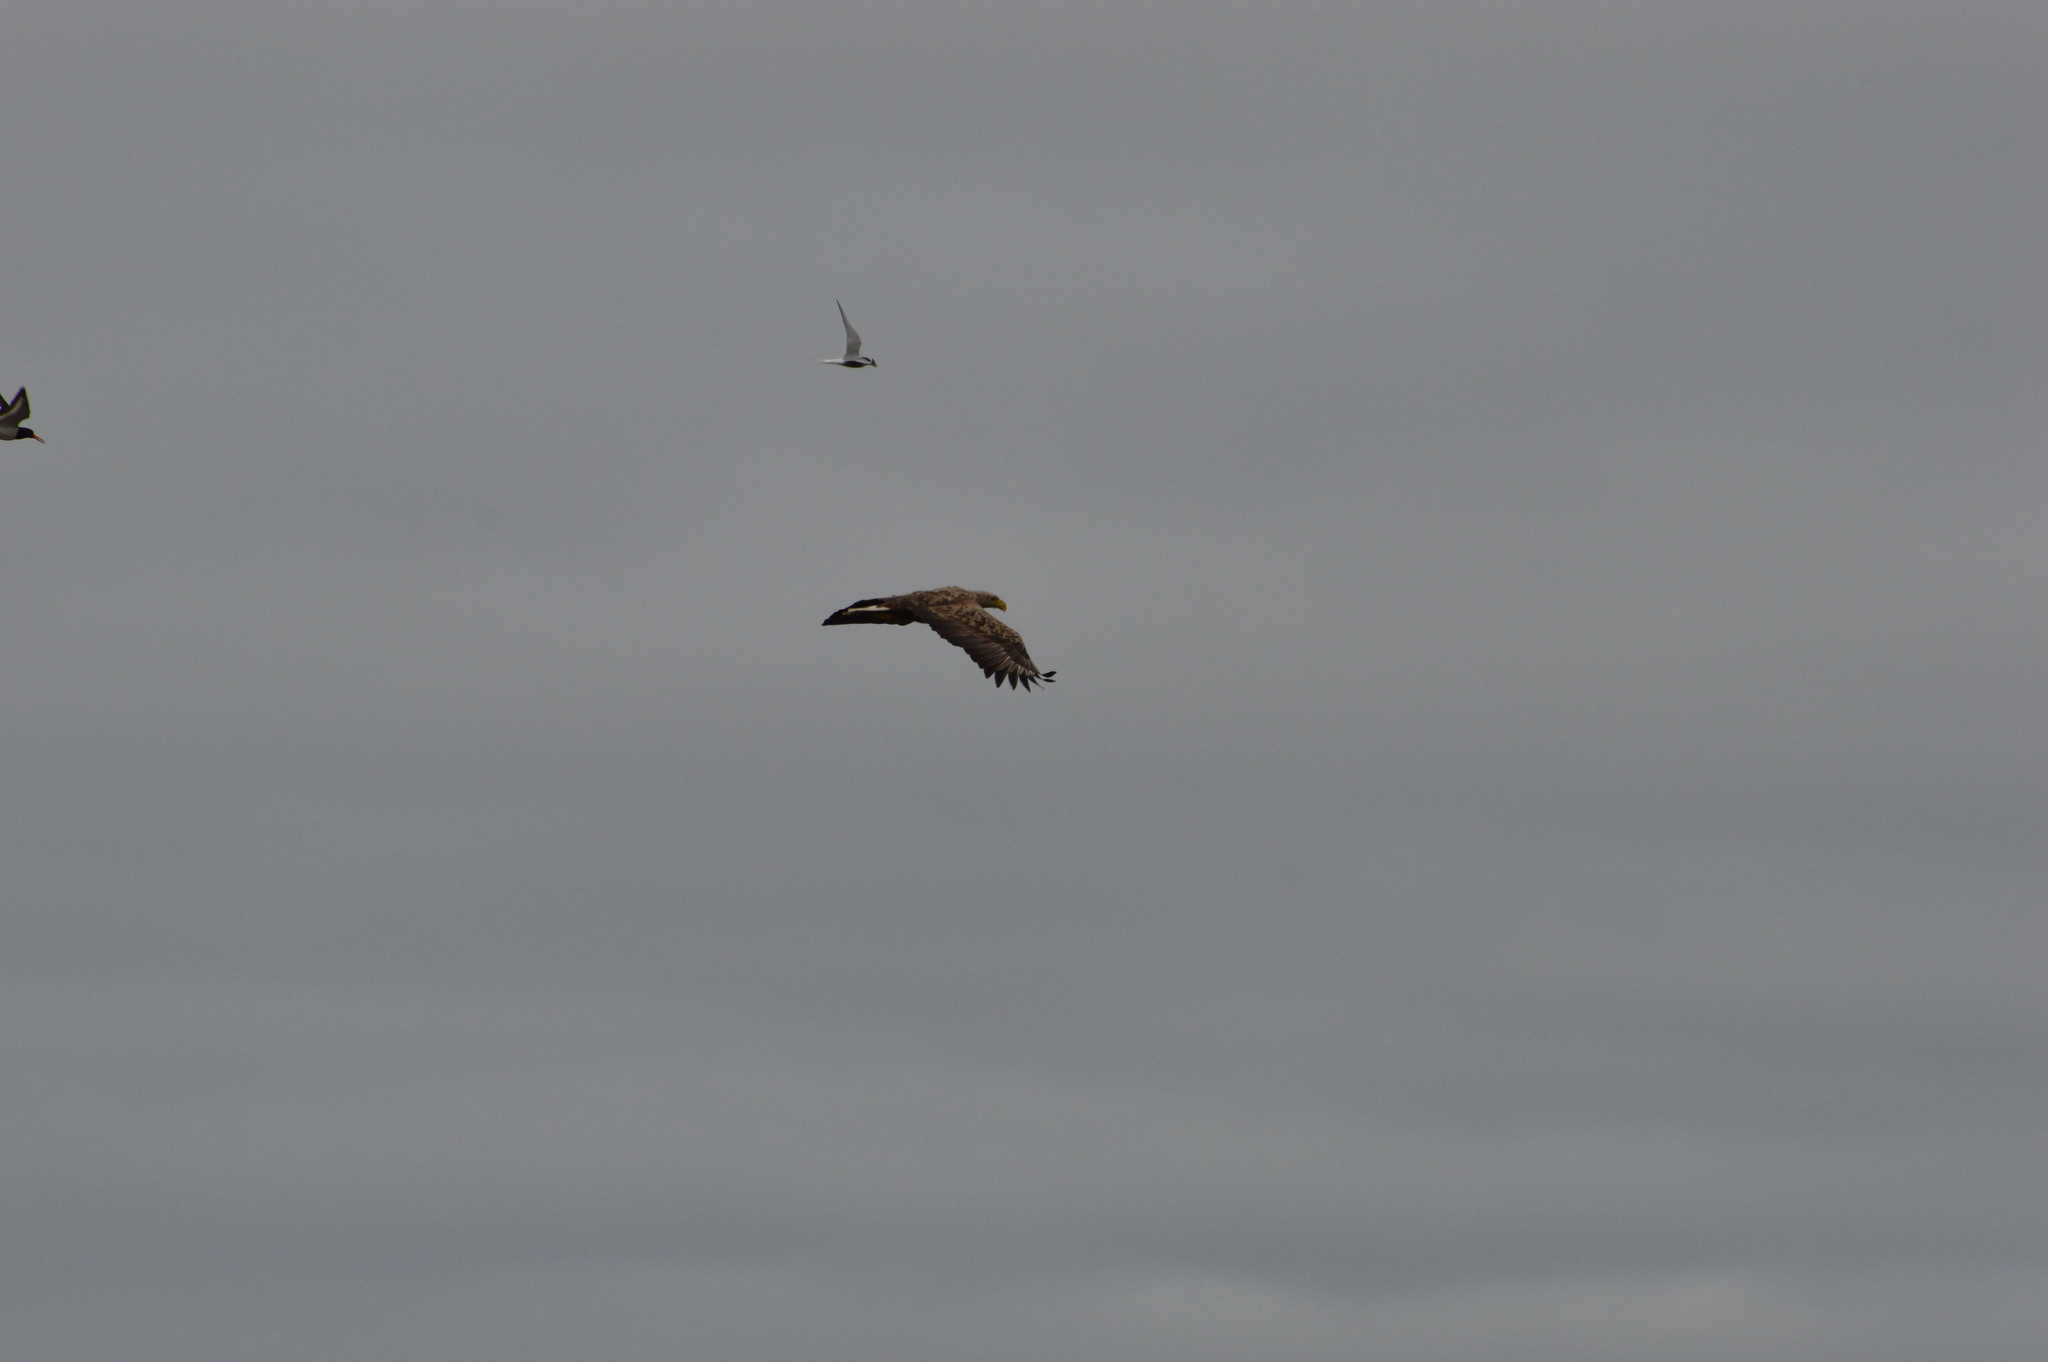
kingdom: Animalia
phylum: Chordata
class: Aves
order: Accipitriformes
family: Accipitridae
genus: Haliaeetus
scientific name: Haliaeetus albicilla
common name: White-tailed eagle
